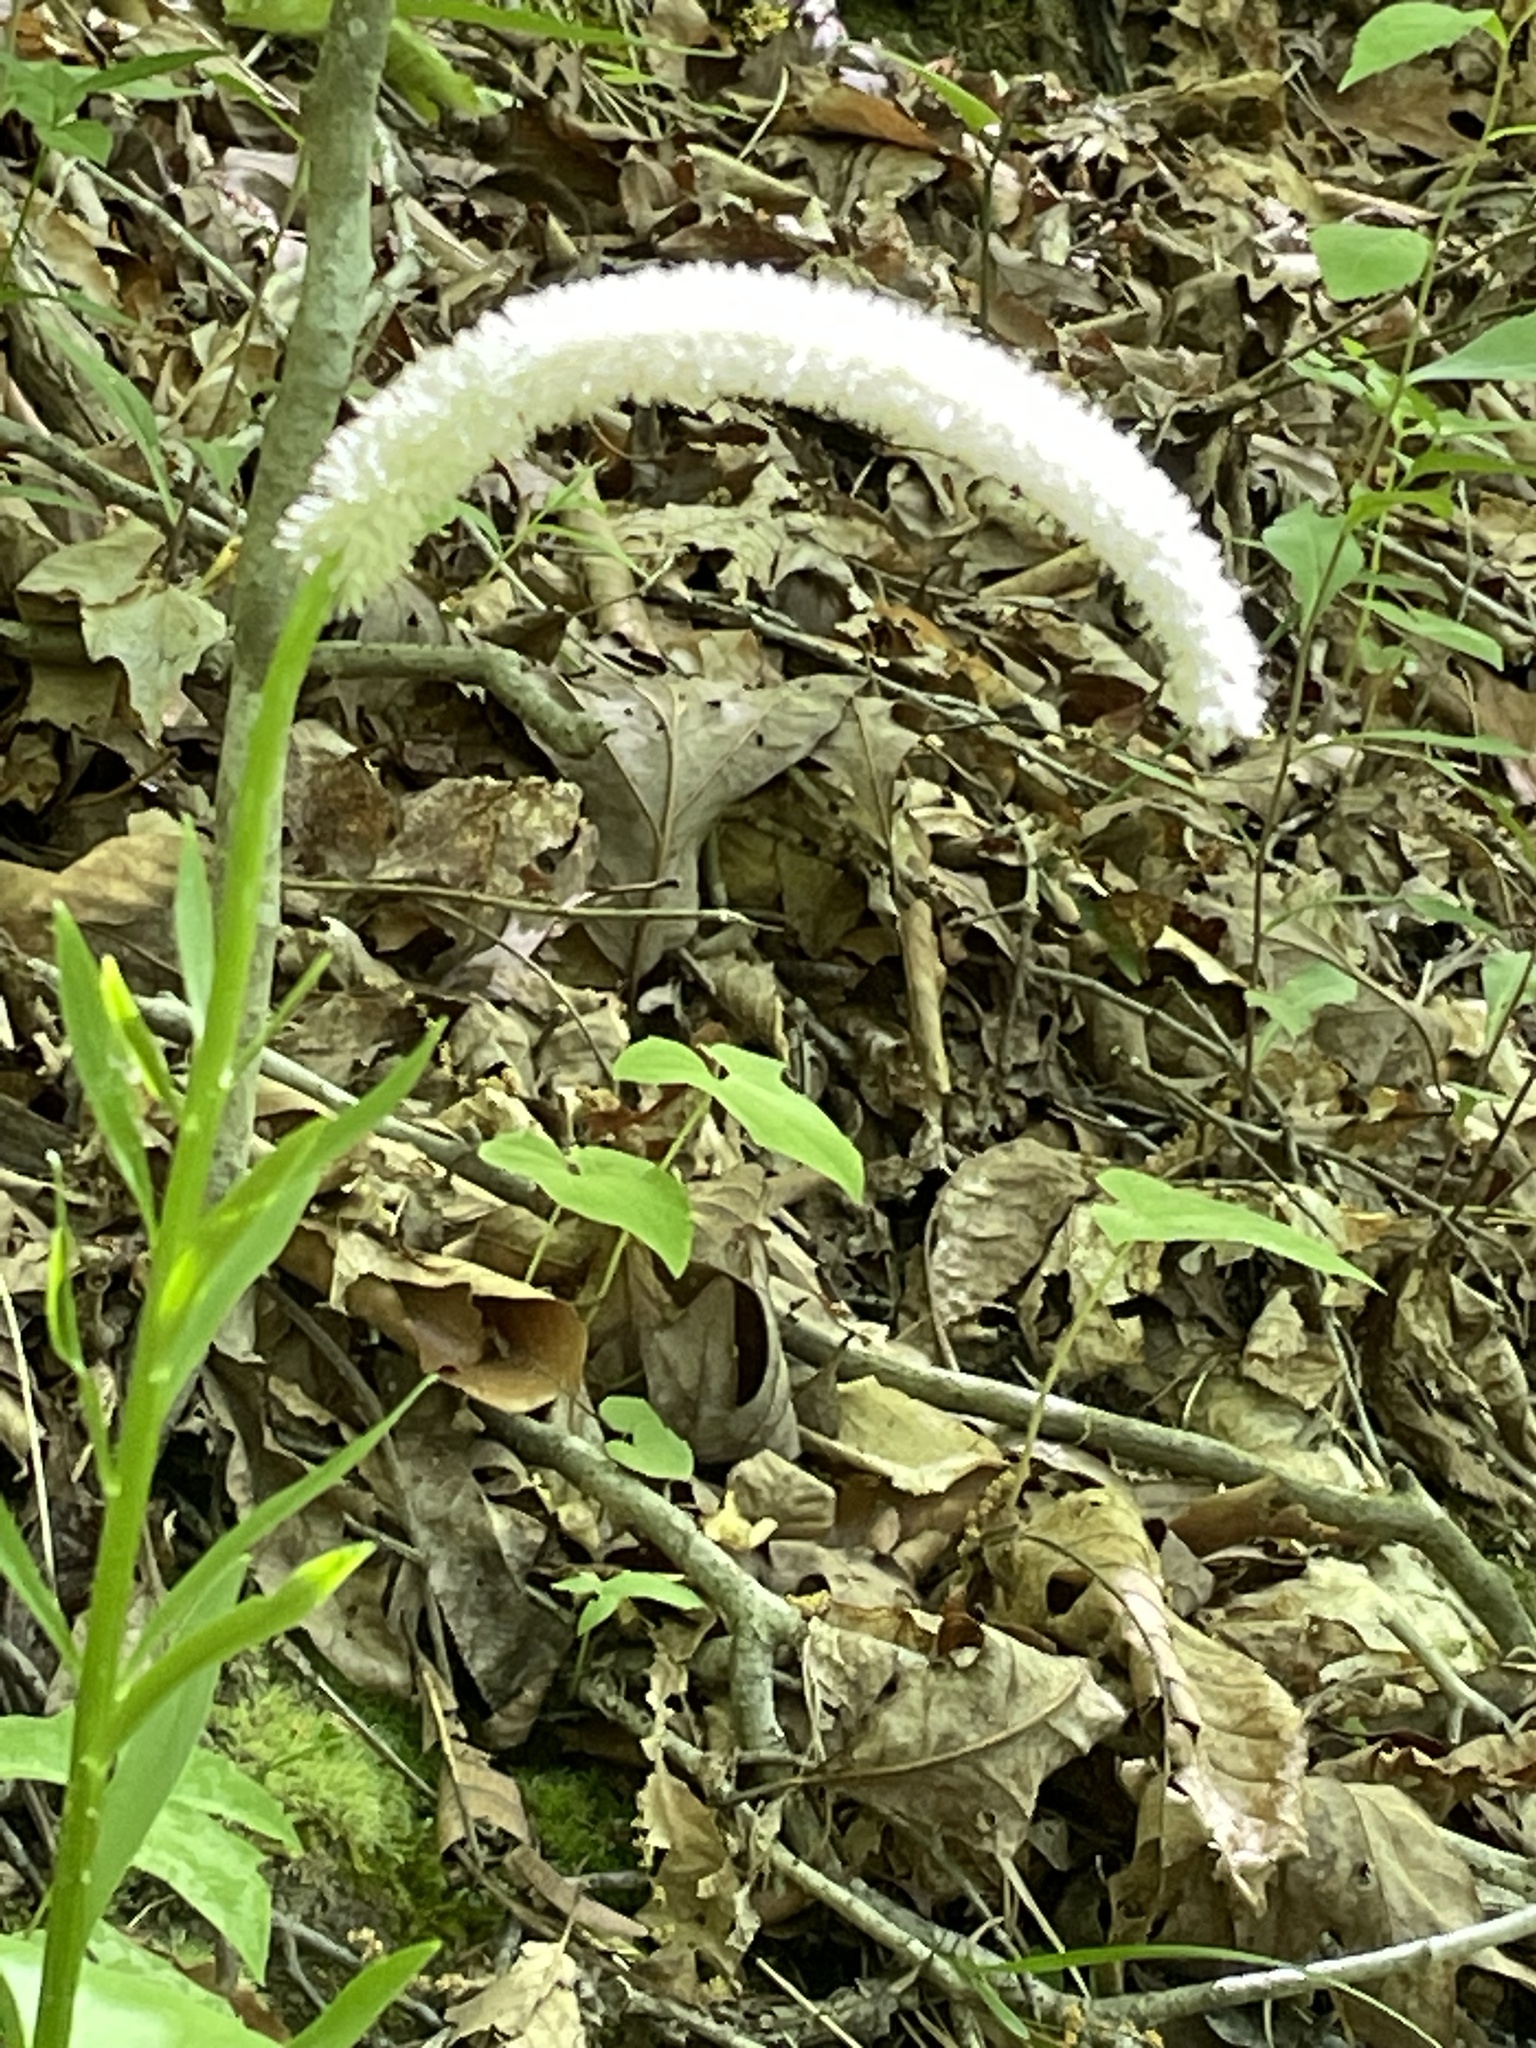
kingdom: Plantae
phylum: Tracheophyta
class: Liliopsida
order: Liliales
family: Melanthiaceae
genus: Chamaelirium
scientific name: Chamaelirium luteum
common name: Fairy-wand
